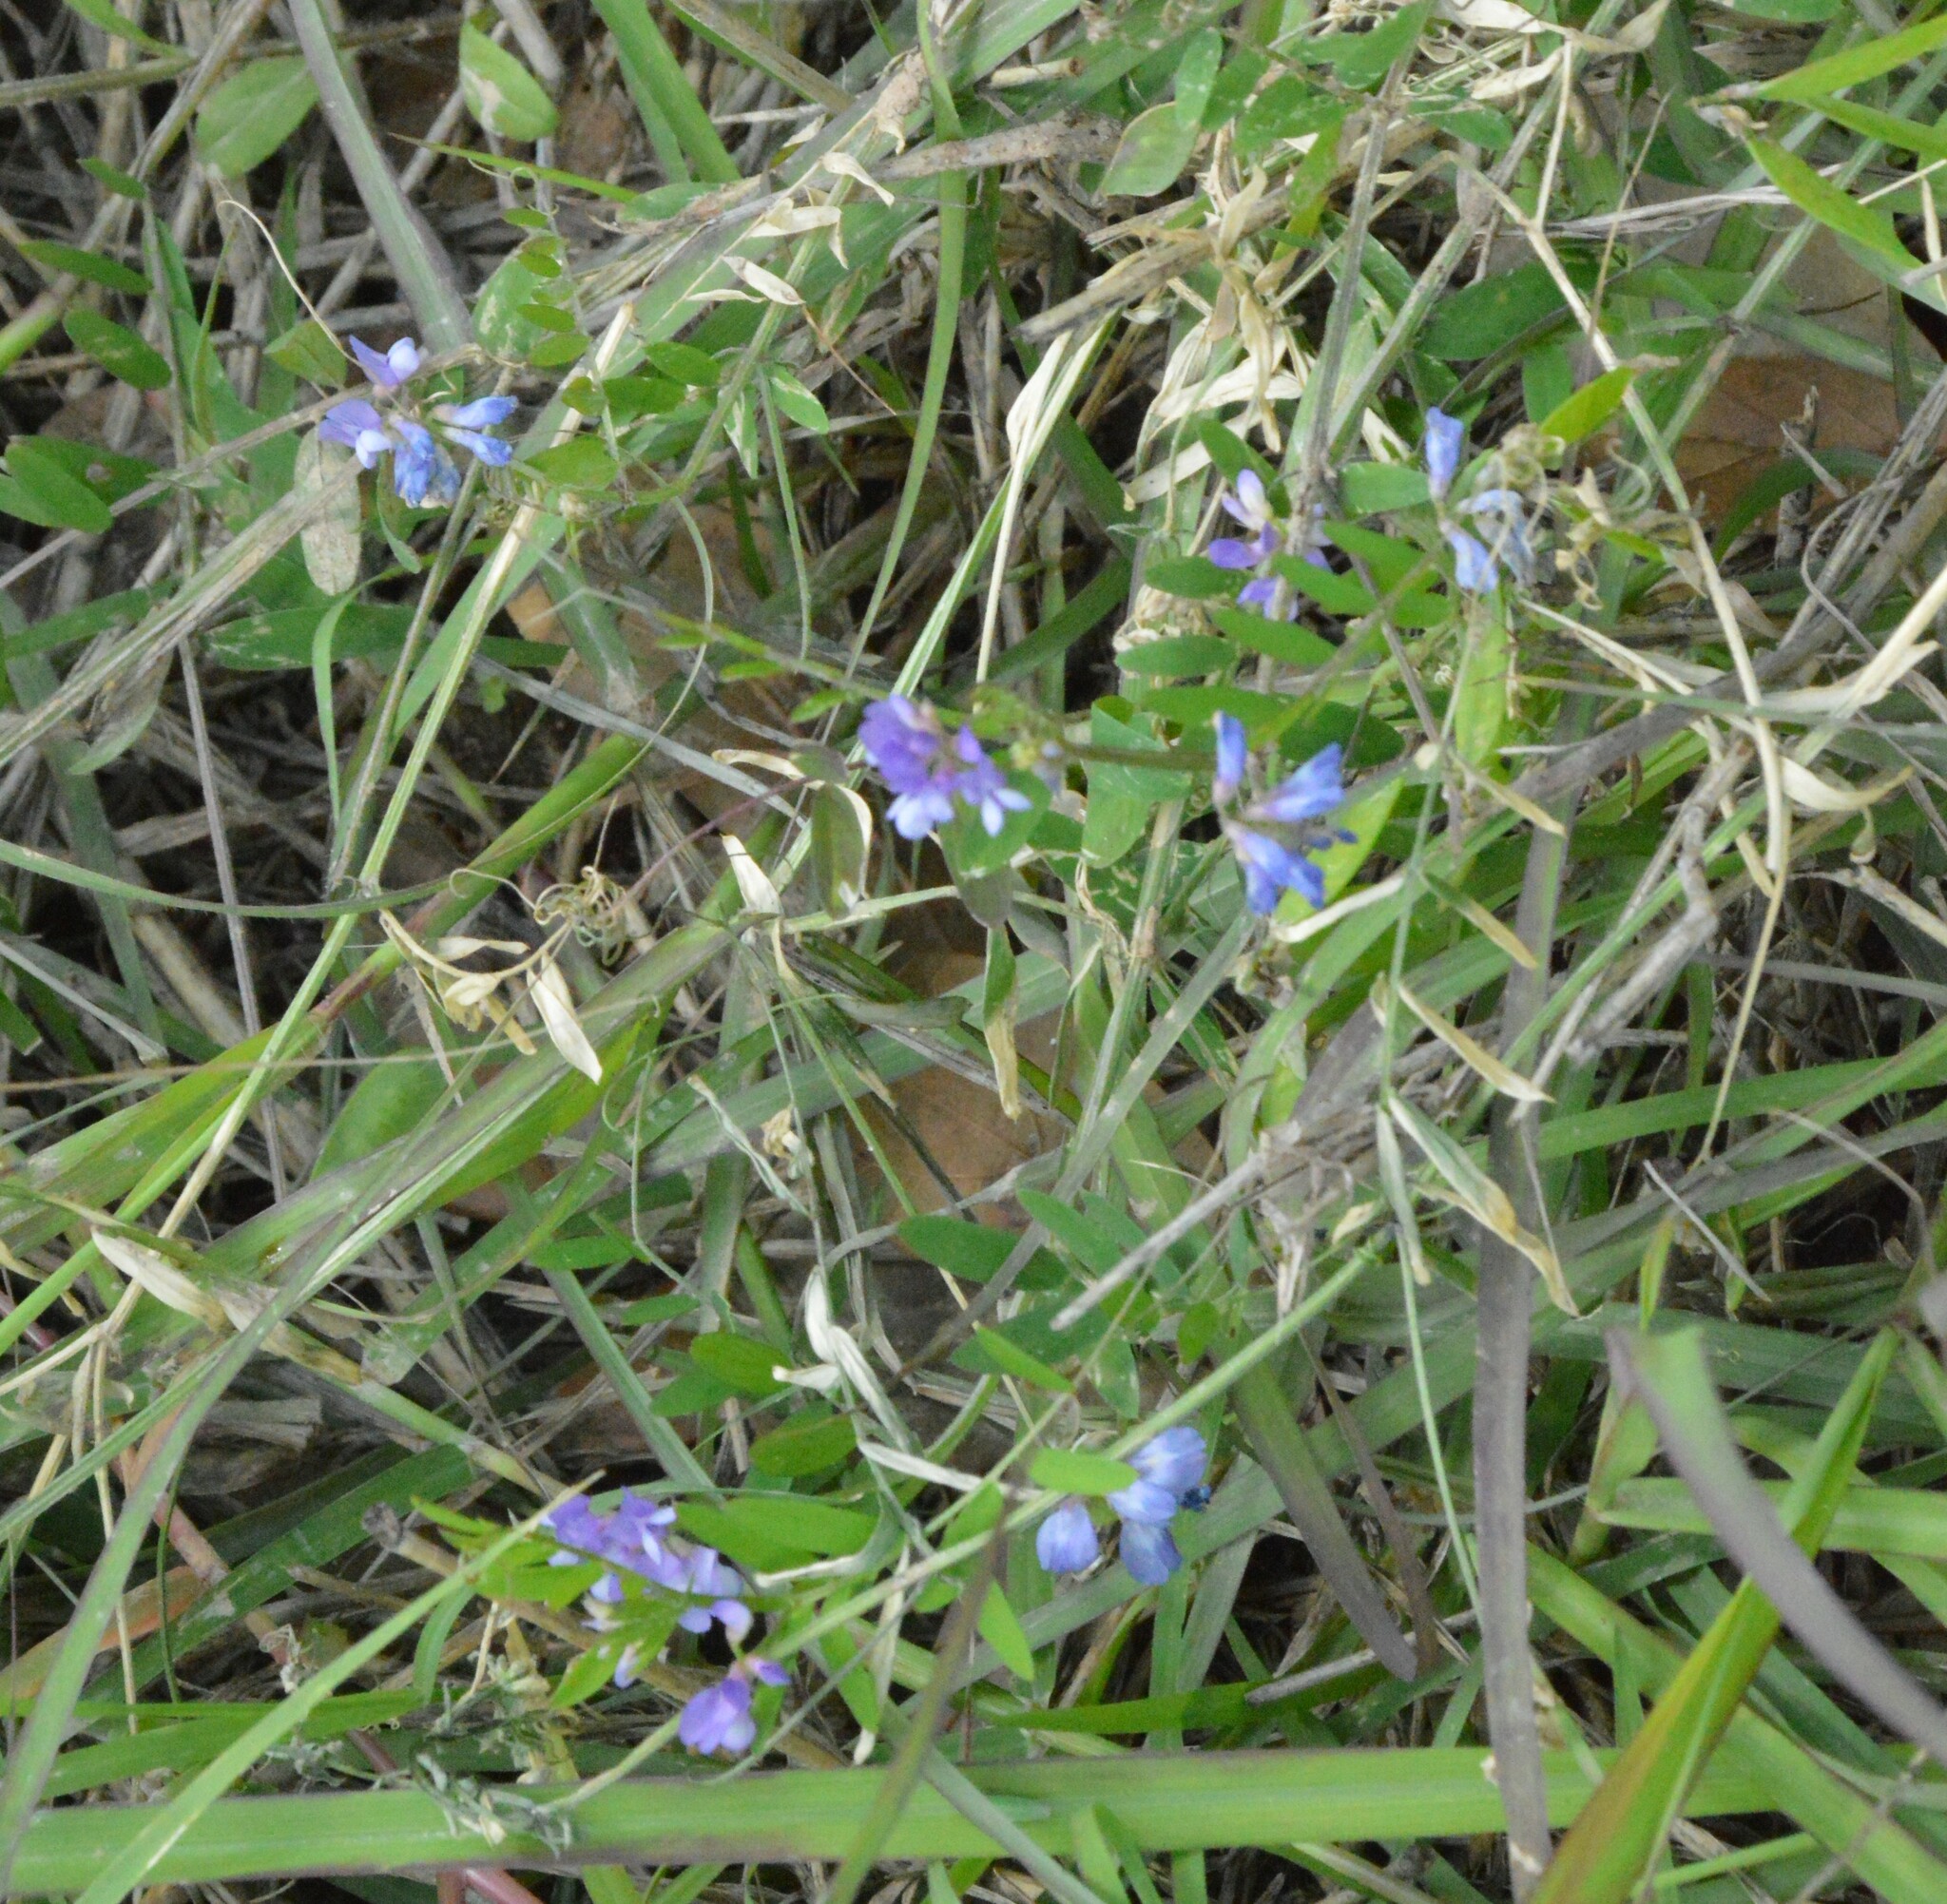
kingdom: Plantae
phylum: Tracheophyta
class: Magnoliopsida
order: Fabales
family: Fabaceae
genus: Vicia
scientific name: Vicia ludoviciana
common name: Louisiana vetch
